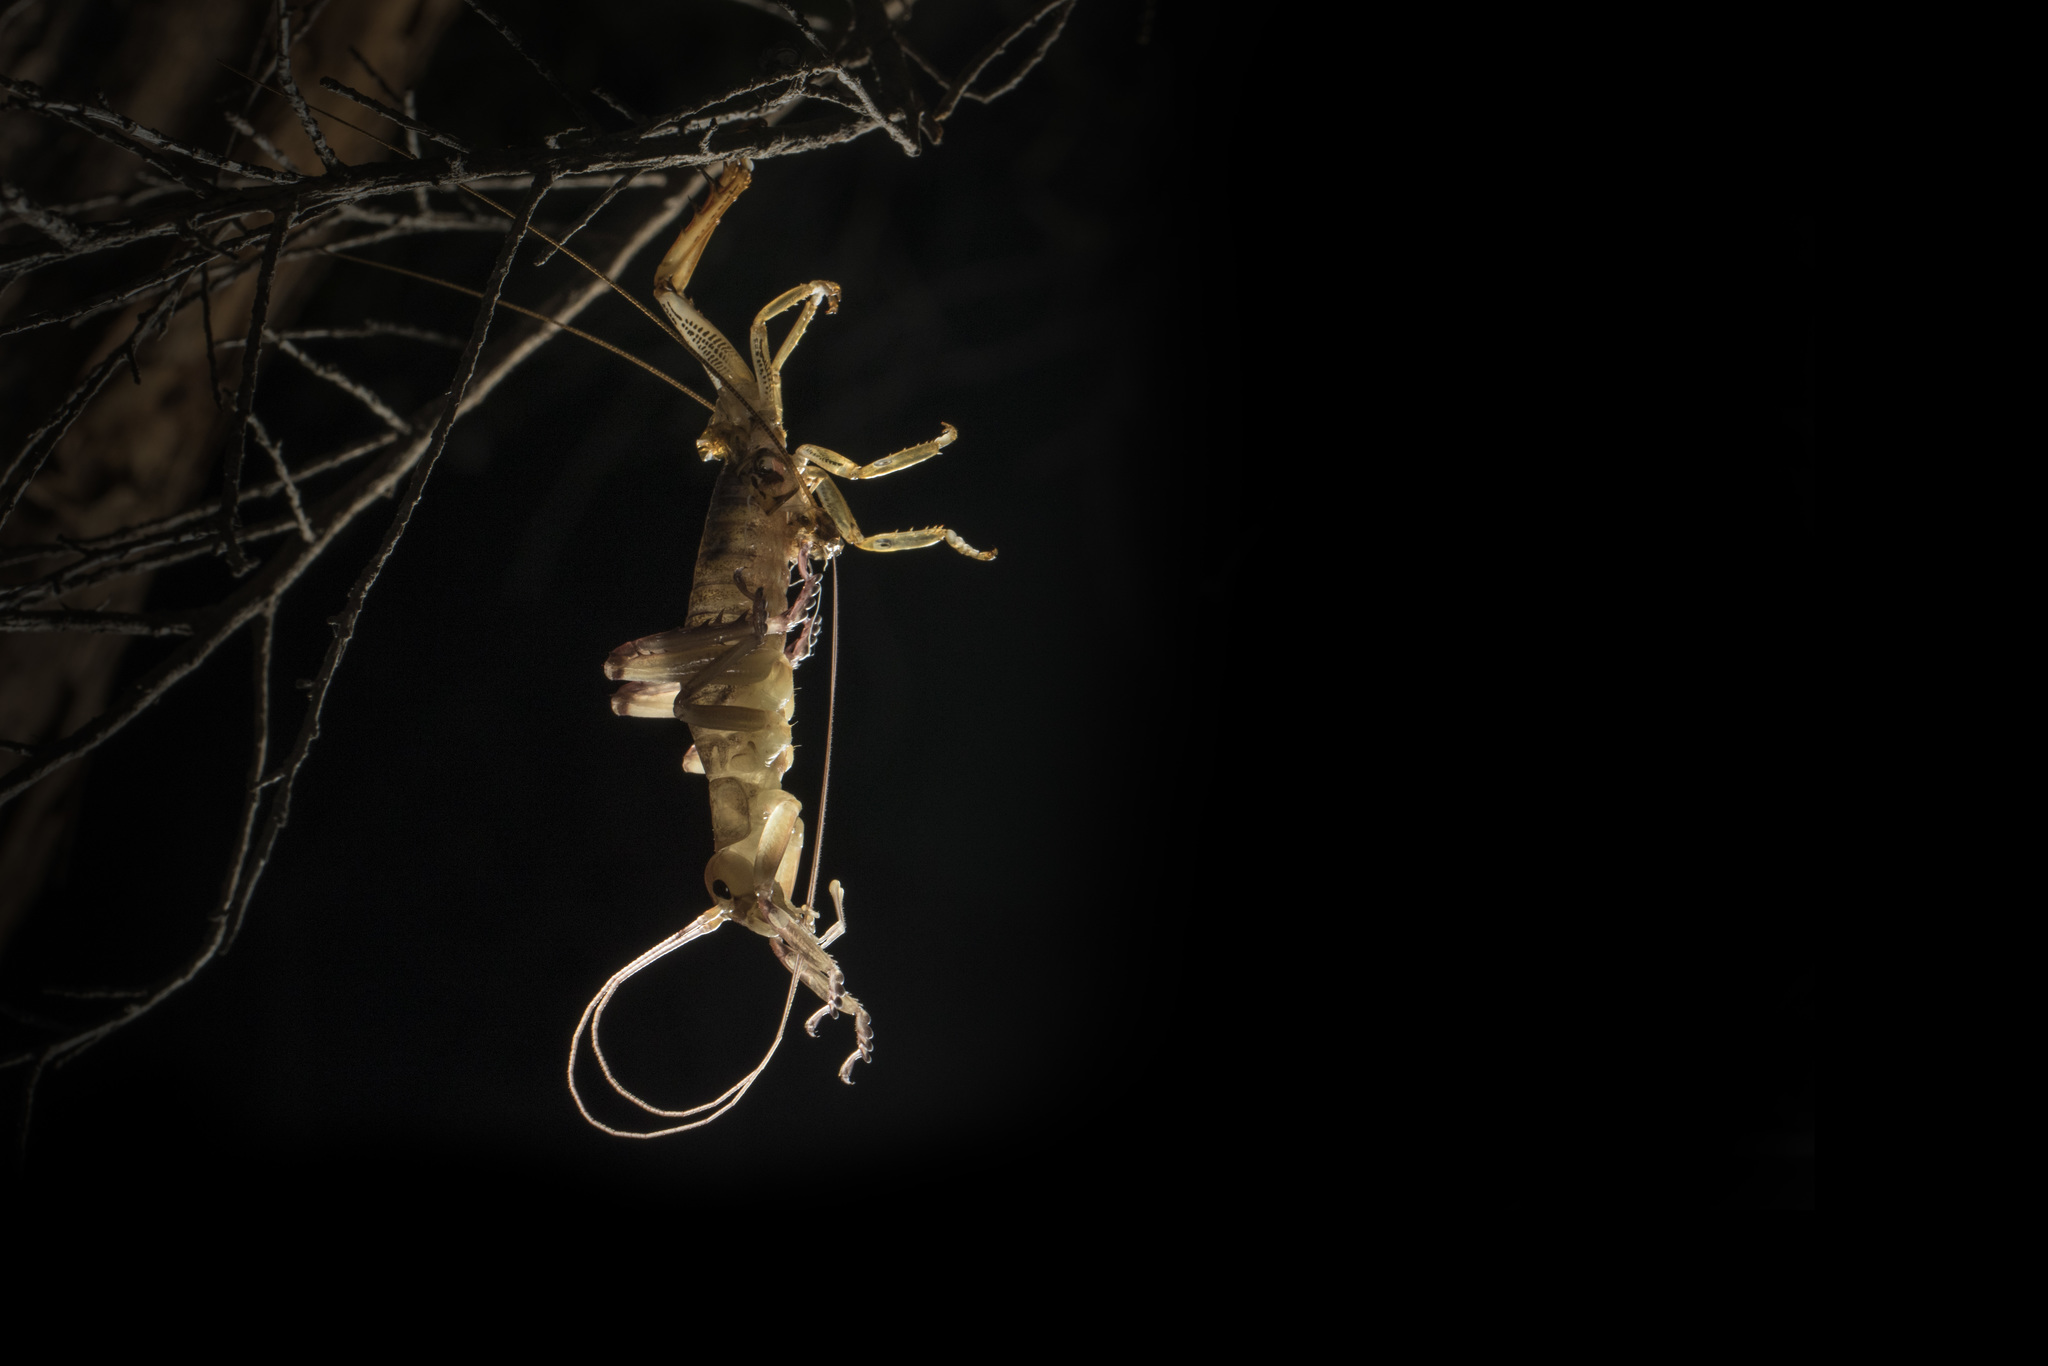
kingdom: Animalia
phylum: Arthropoda
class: Insecta
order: Orthoptera
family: Anostostomatidae
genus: Hemideina
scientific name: Hemideina thoracica
